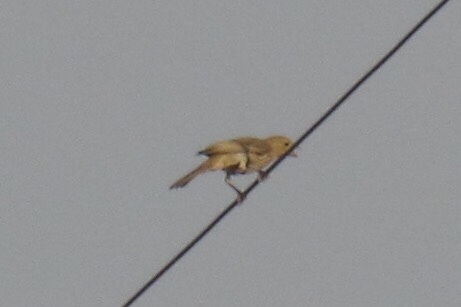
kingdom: Animalia
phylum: Chordata
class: Aves
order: Passeriformes
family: Fringillidae
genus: Haemorhous
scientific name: Haemorhous mexicanus
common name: House finch
